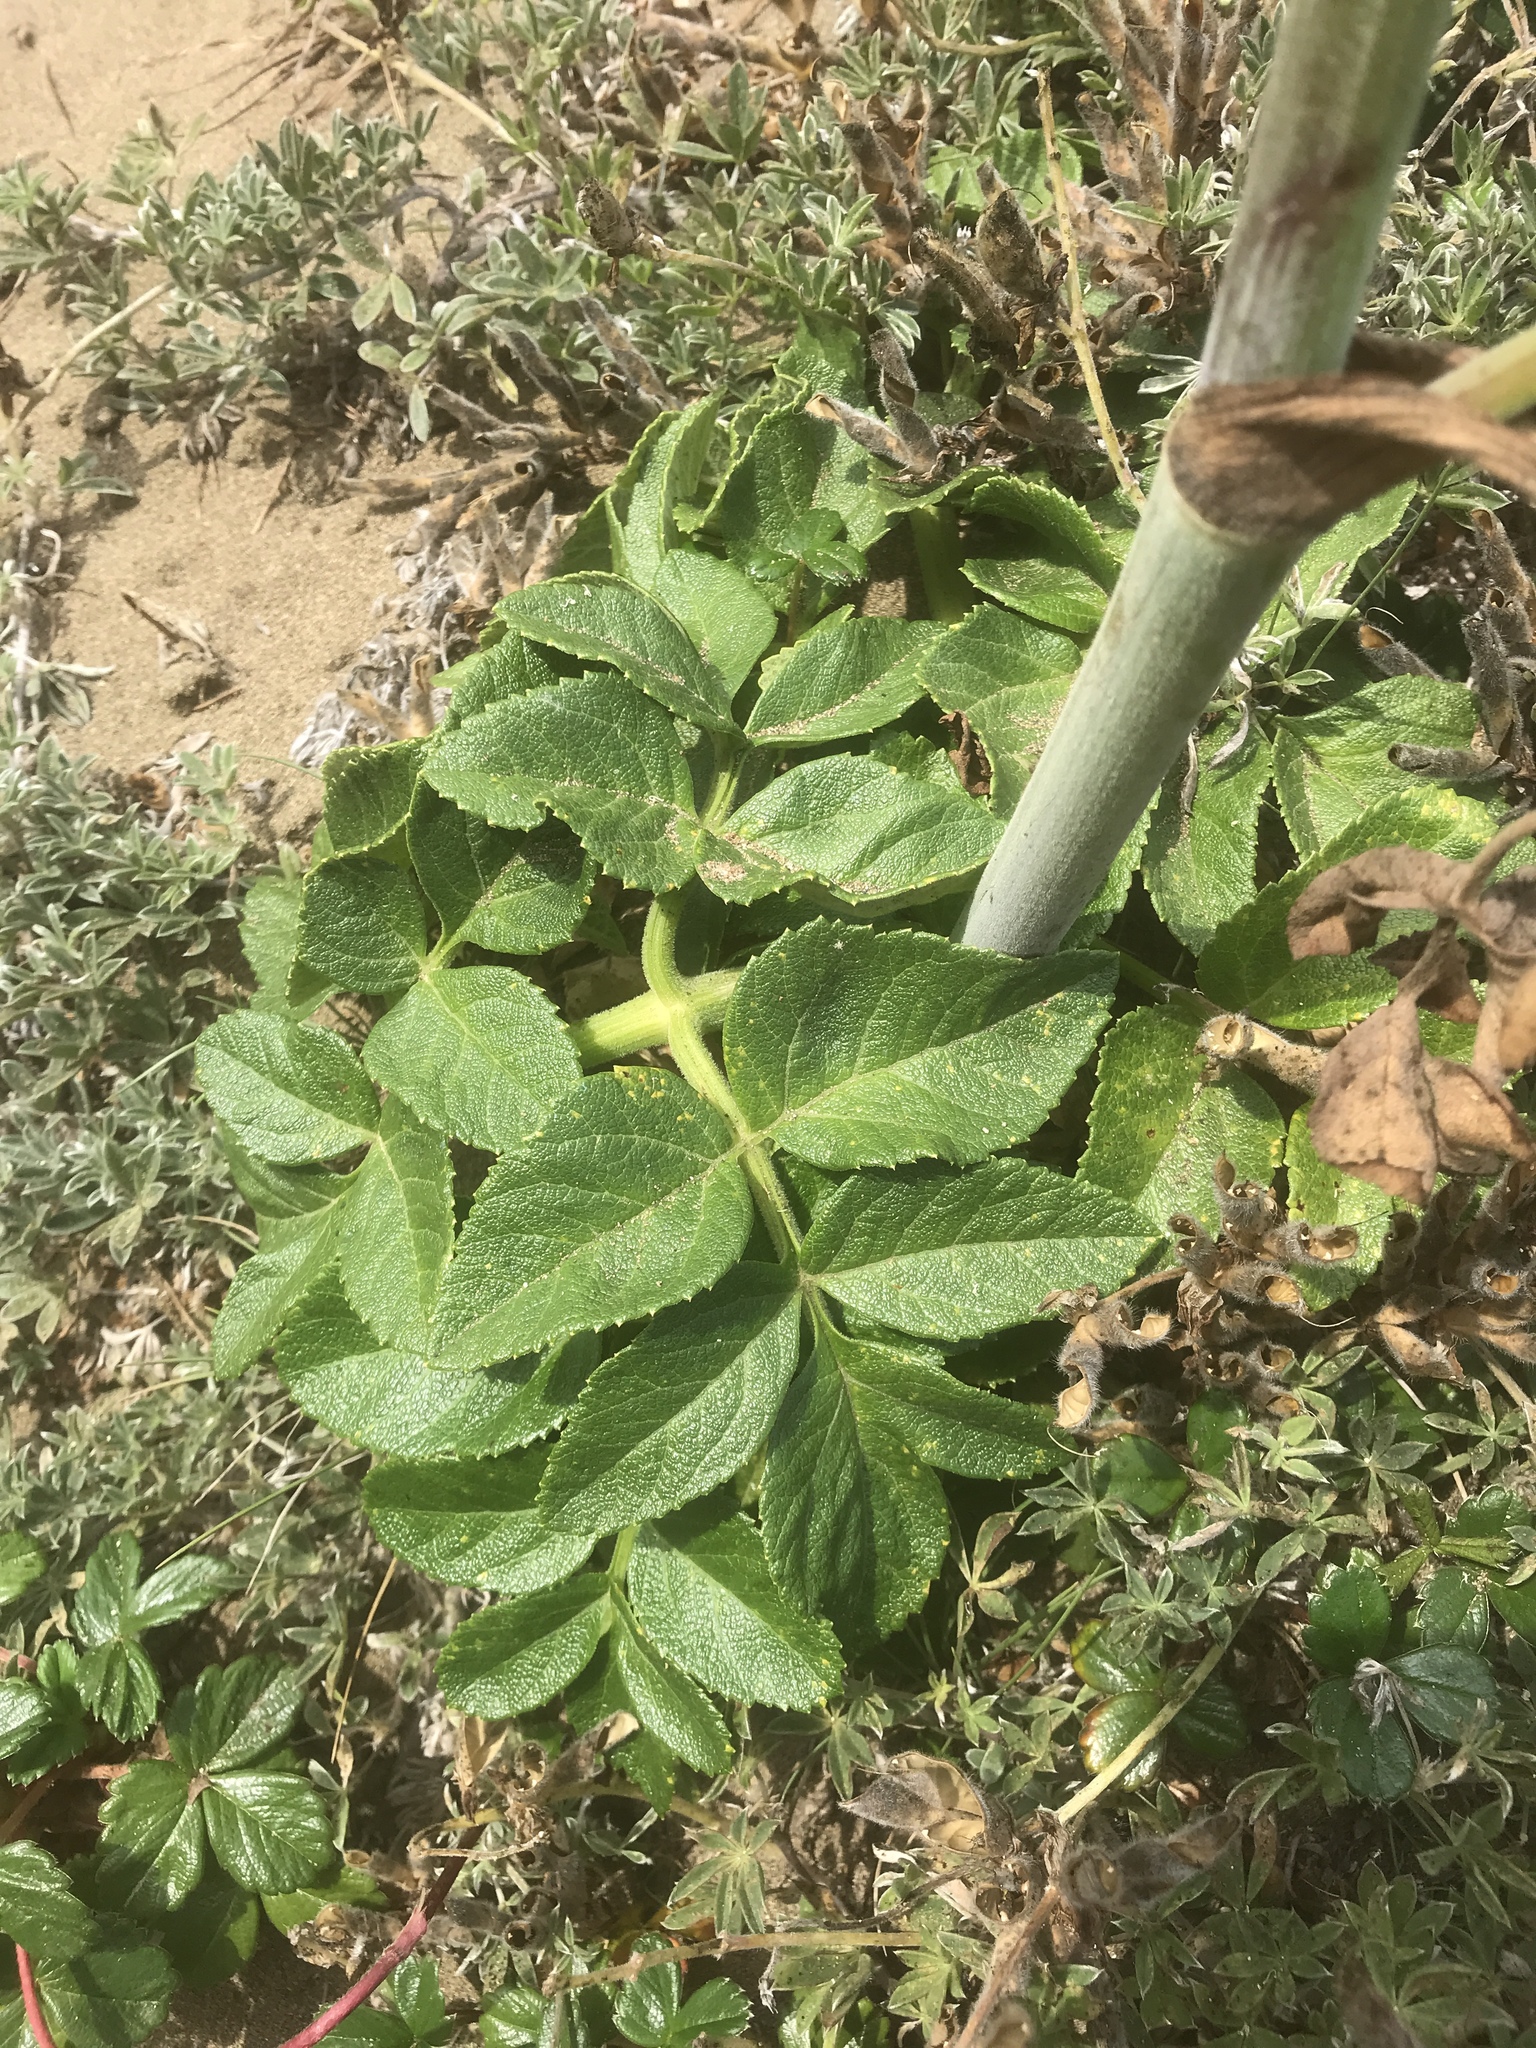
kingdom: Plantae
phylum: Tracheophyta
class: Magnoliopsida
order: Apiales
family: Apiaceae
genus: Angelica
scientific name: Angelica hendersonii
